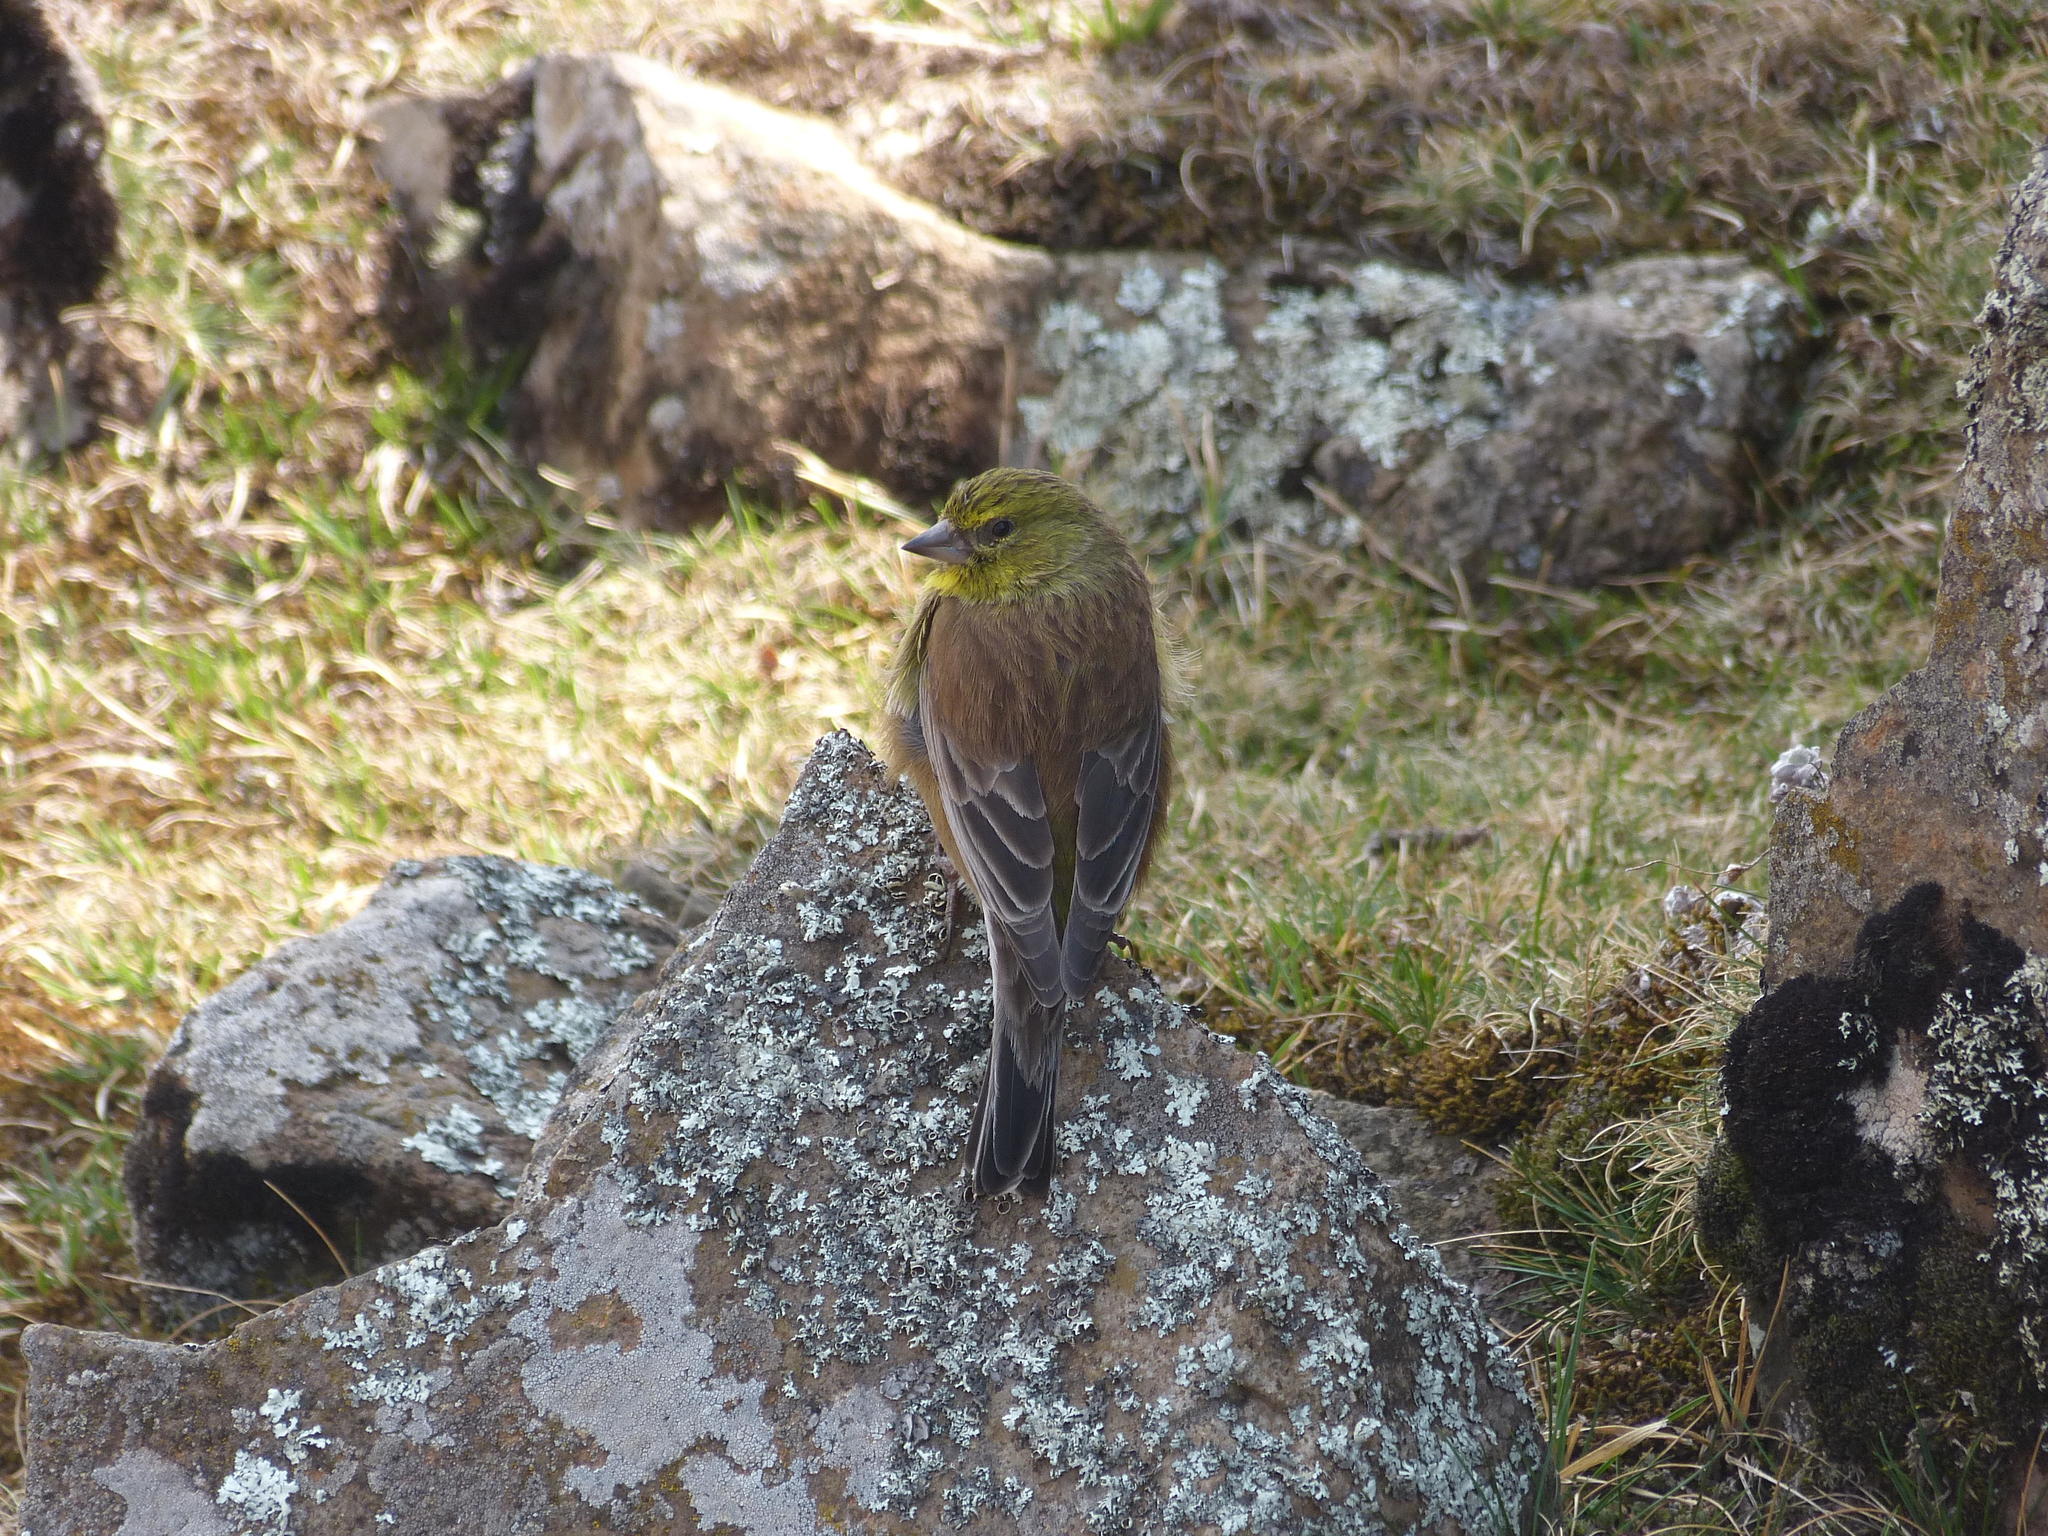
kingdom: Animalia
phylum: Chordata
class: Aves
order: Passeriformes
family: Fringillidae
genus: Crithagra
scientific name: Crithagra symonsi
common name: Drakensberg siskin
